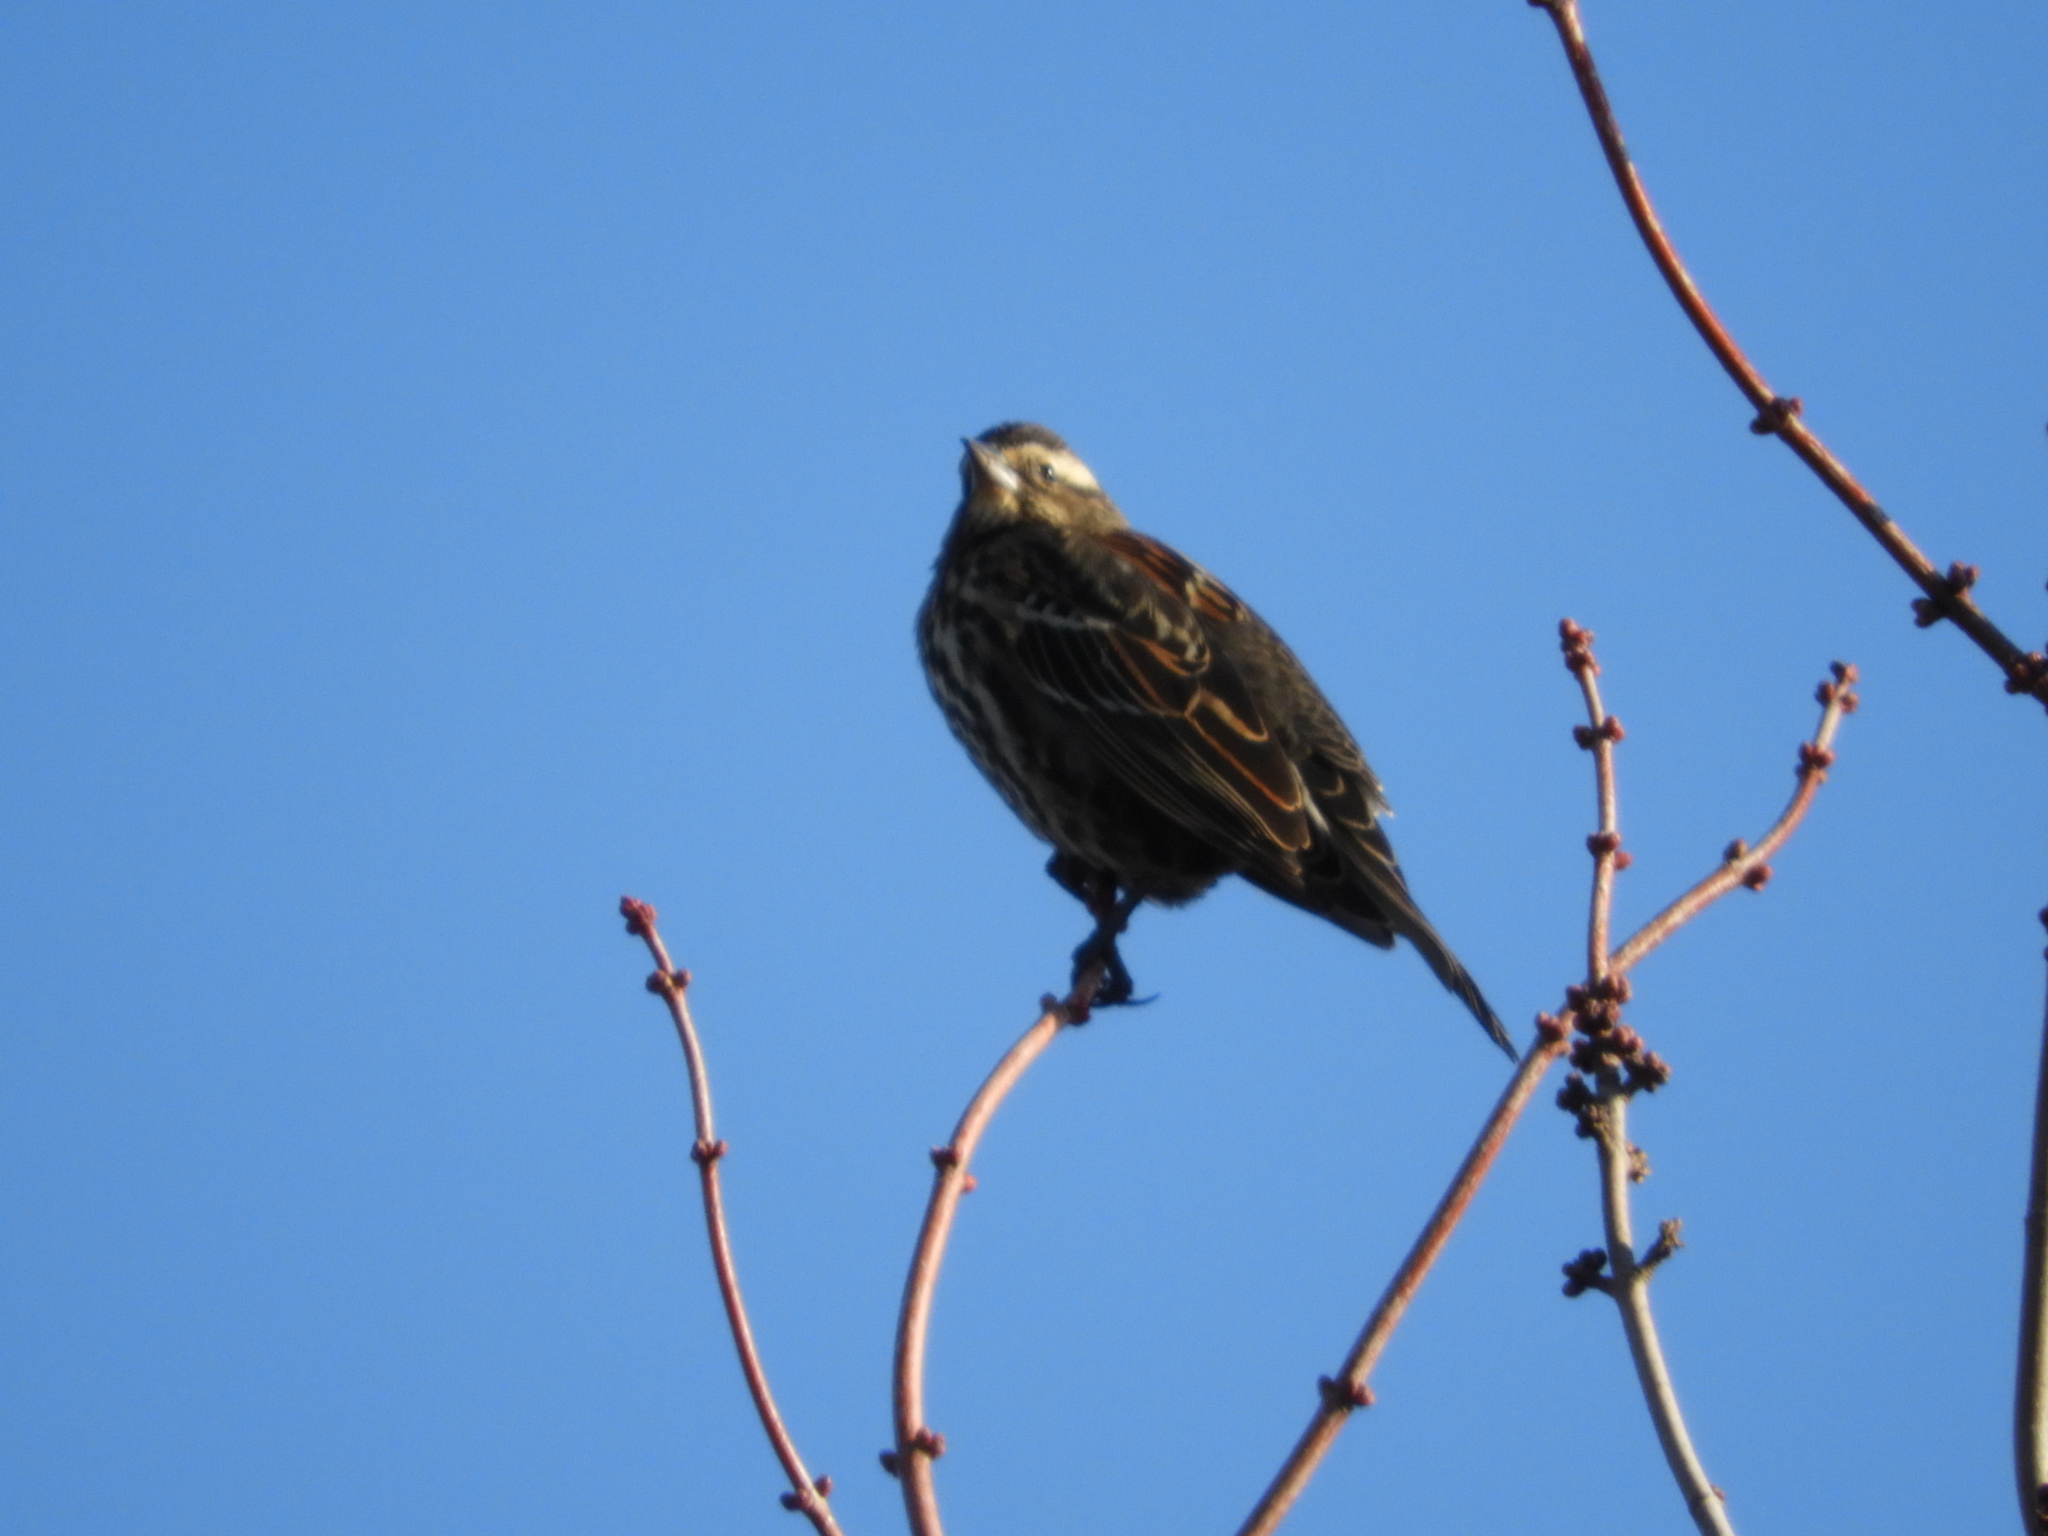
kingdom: Animalia
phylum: Chordata
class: Aves
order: Passeriformes
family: Icteridae
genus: Agelaius
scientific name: Agelaius phoeniceus
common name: Red-winged blackbird
